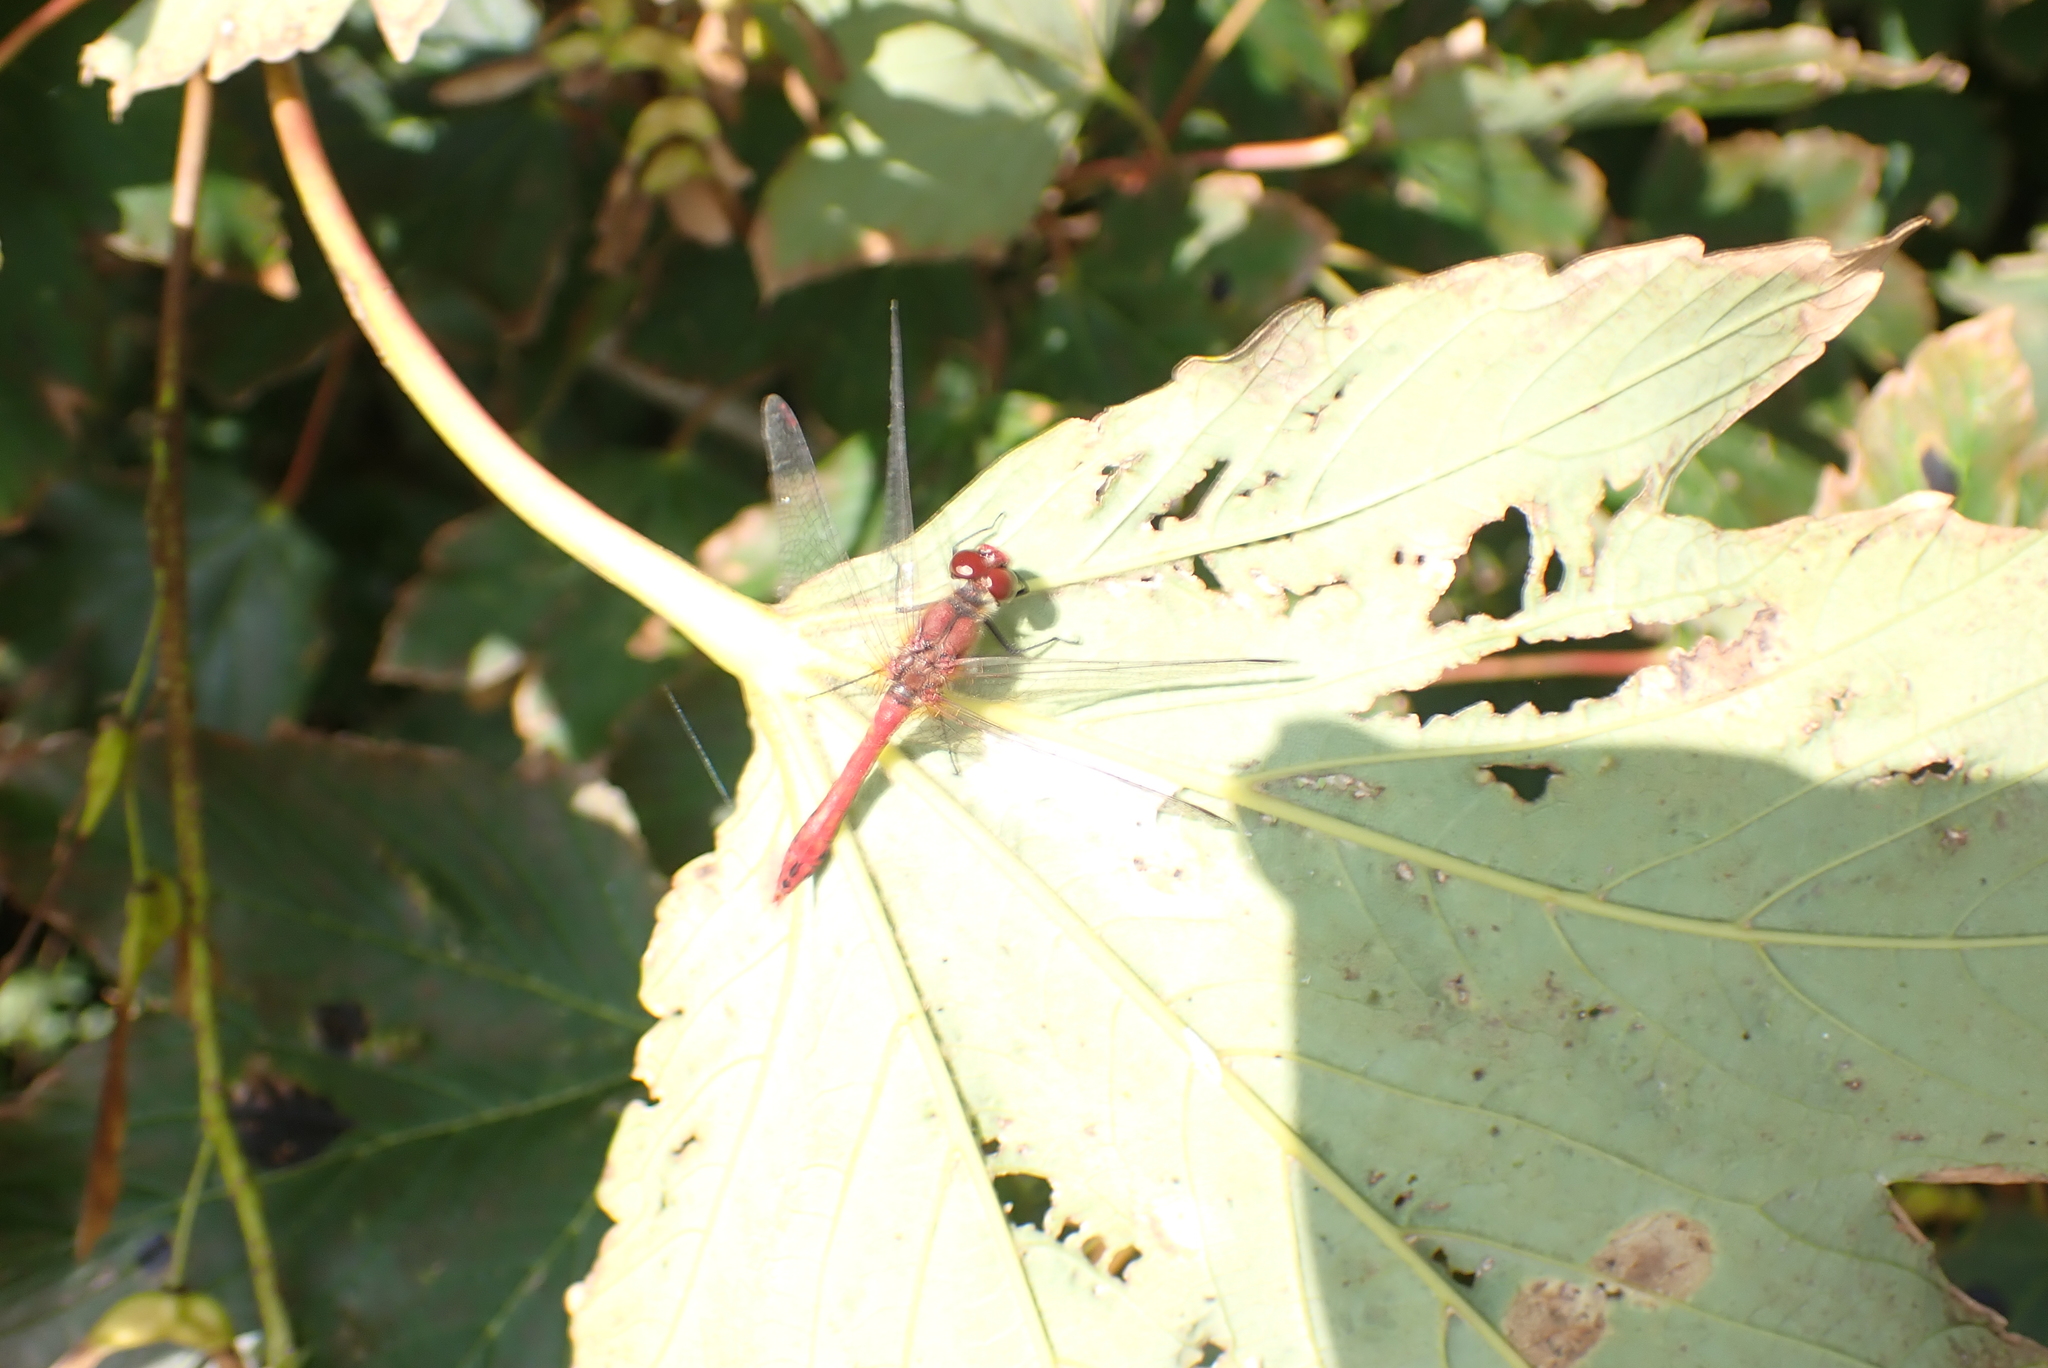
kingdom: Animalia
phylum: Arthropoda
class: Insecta
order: Odonata
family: Libellulidae
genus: Sympetrum
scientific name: Sympetrum sanguineum
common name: Ruddy darter
